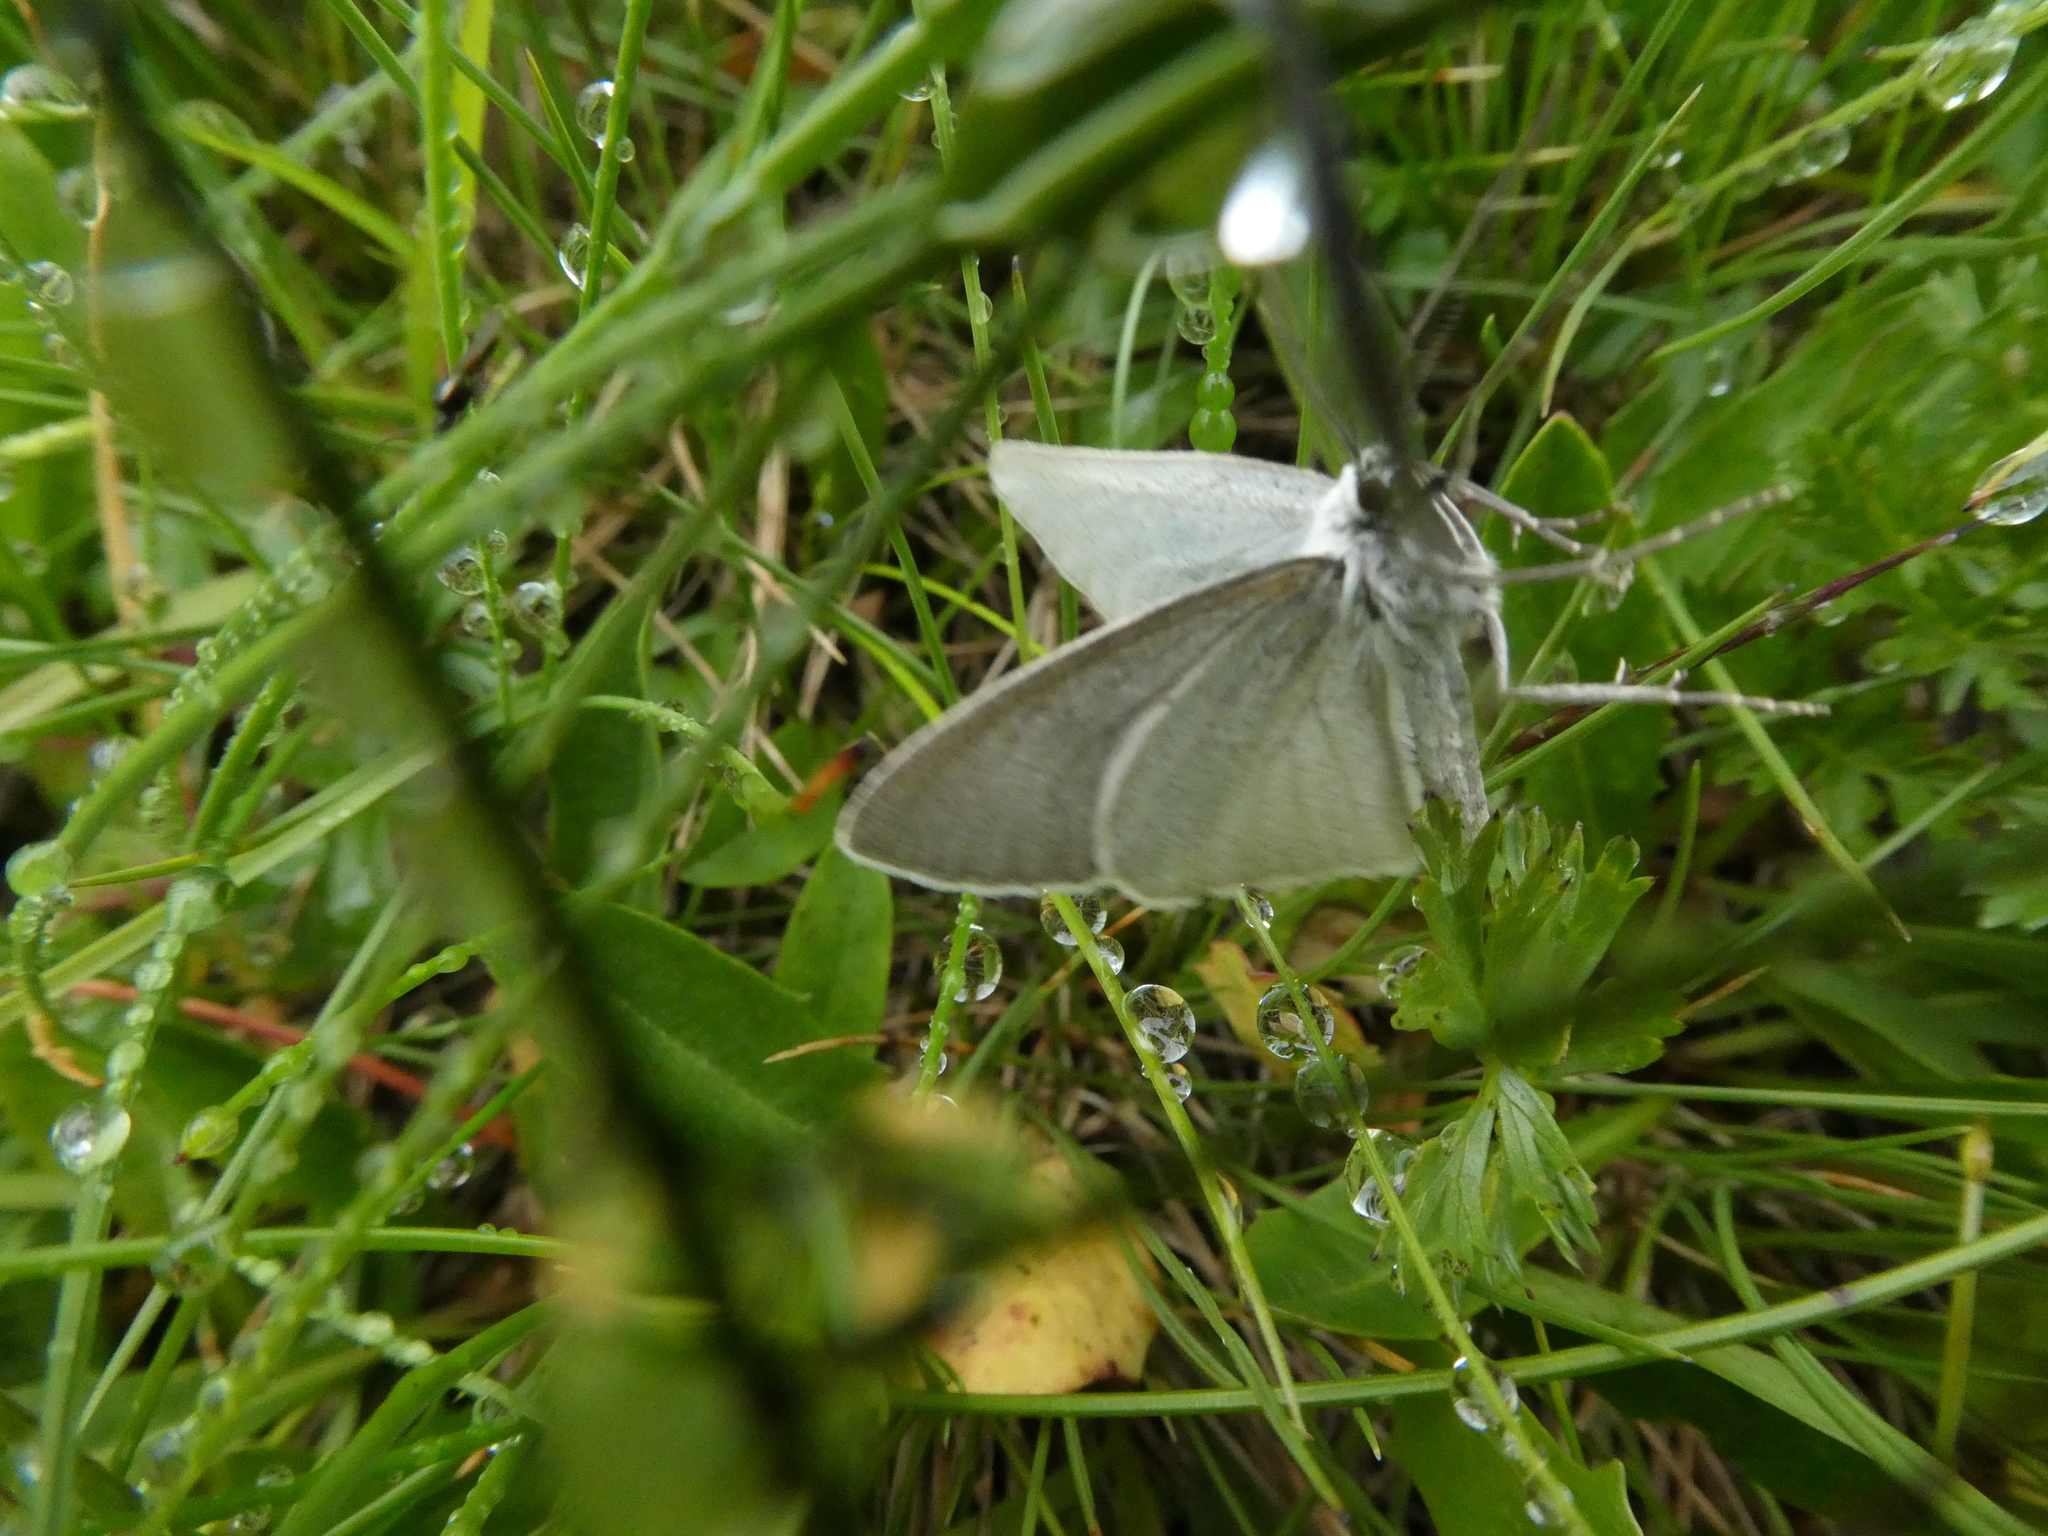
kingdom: Animalia
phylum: Arthropoda
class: Insecta
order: Lepidoptera
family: Geometridae
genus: Crocota
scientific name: Crocota niveata
